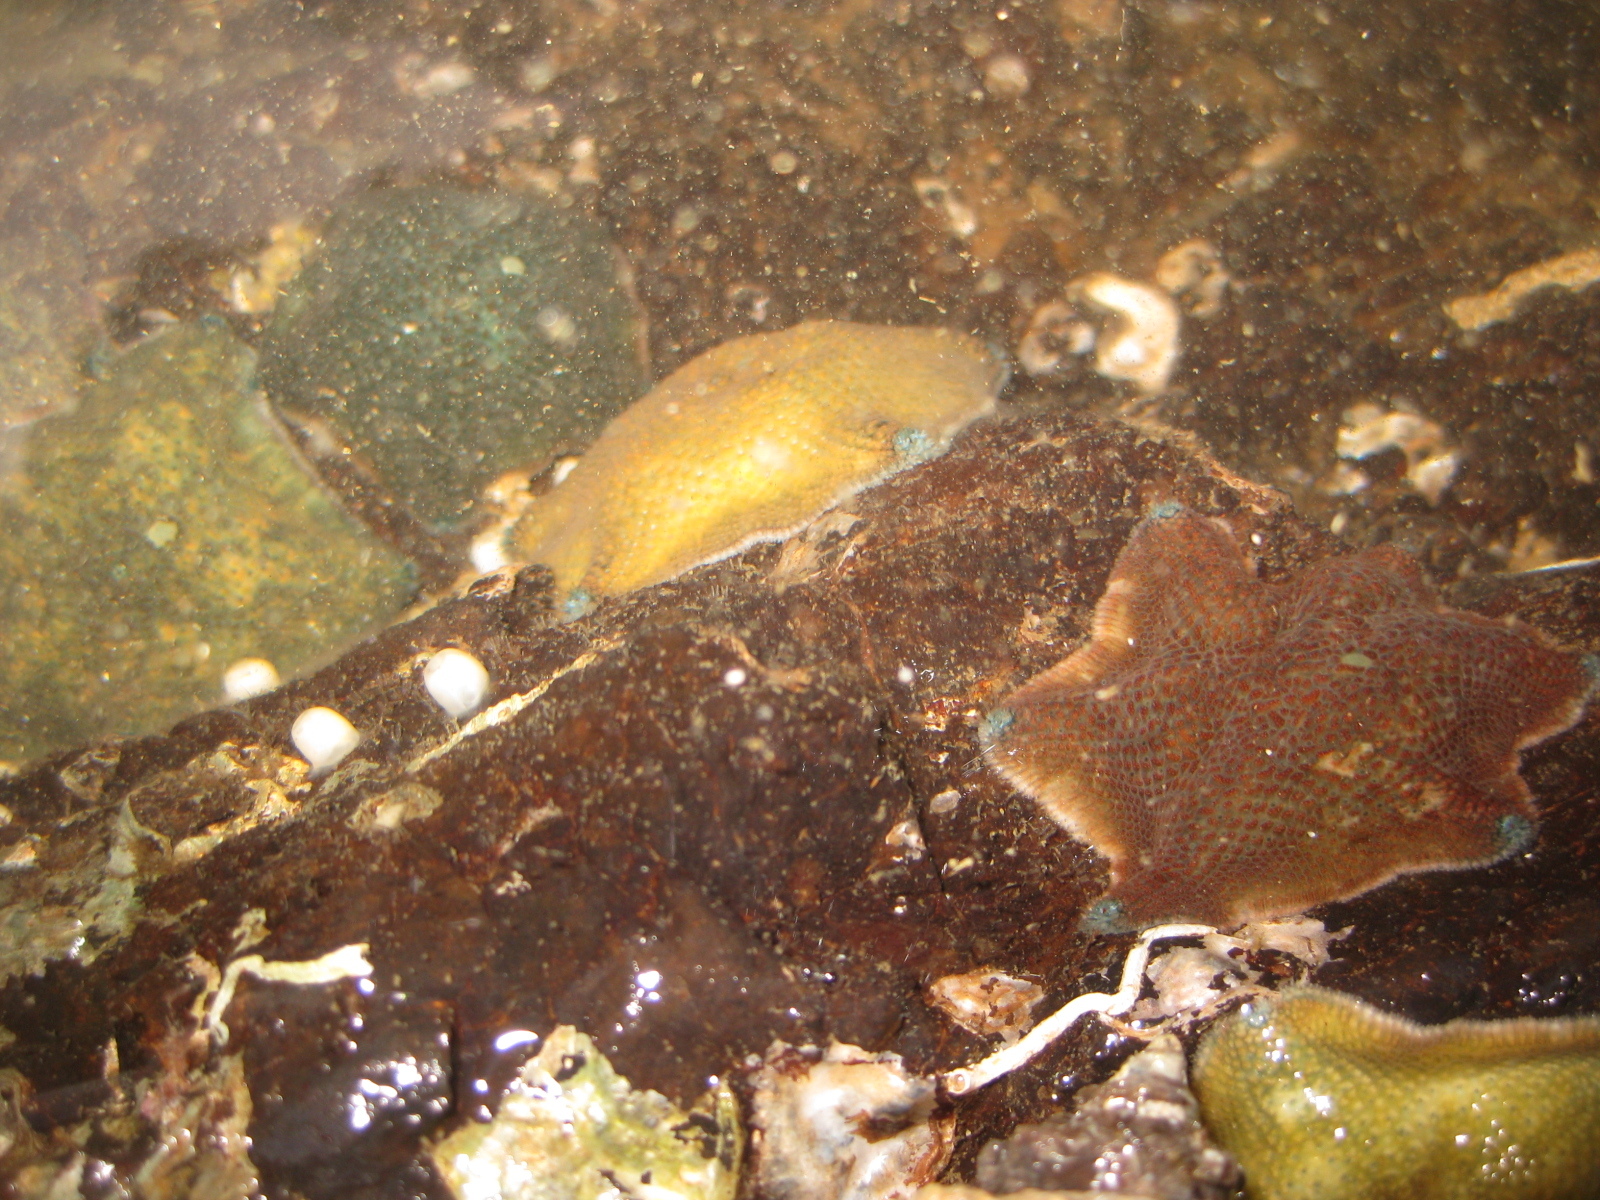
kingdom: Animalia
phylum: Echinodermata
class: Asteroidea
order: Valvatida
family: Asterinidae
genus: Patiriella
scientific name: Patiriella regularis
